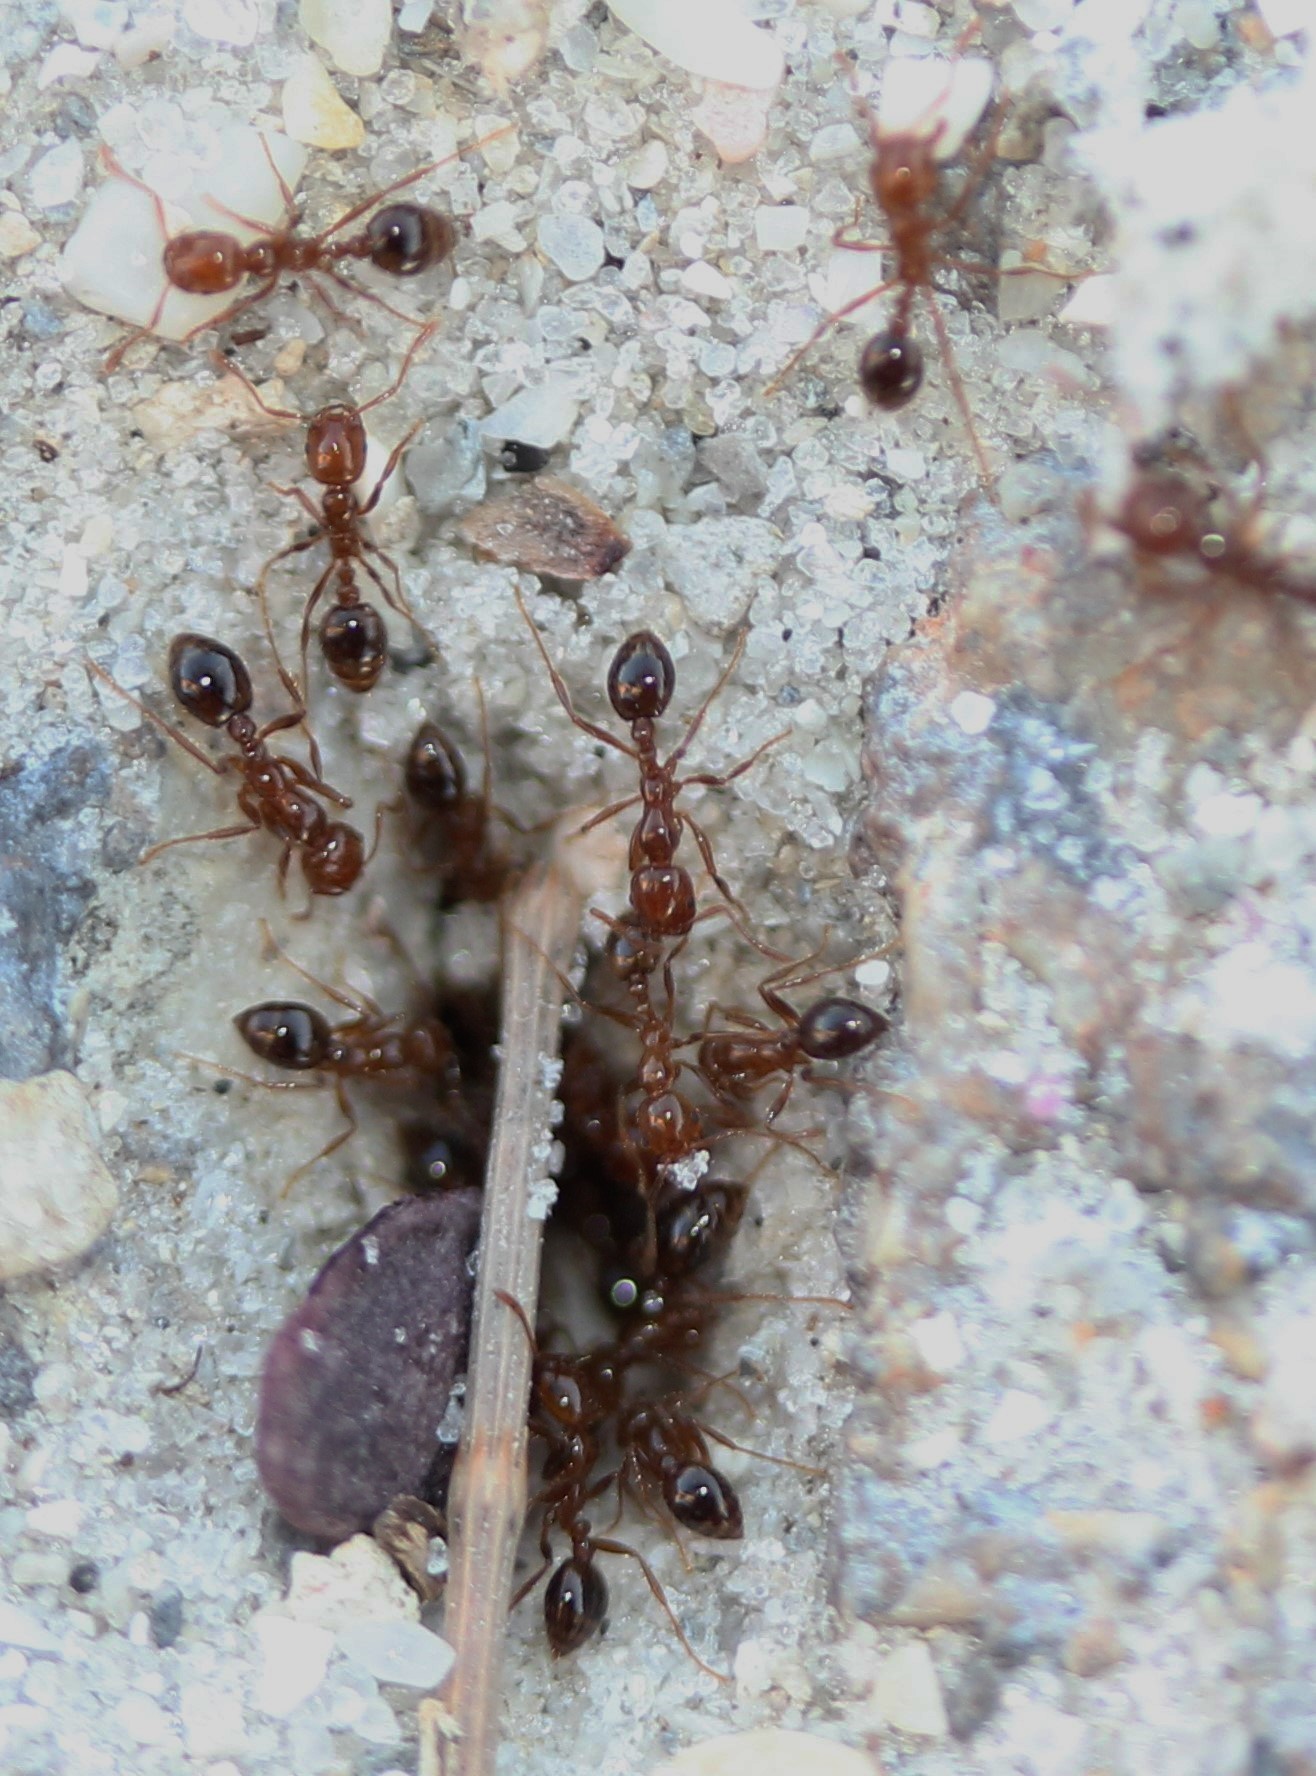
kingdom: Animalia
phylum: Arthropoda
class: Insecta
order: Hymenoptera
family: Formicidae
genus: Solenopsis
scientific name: Solenopsis invicta
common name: Red imported fire ant
